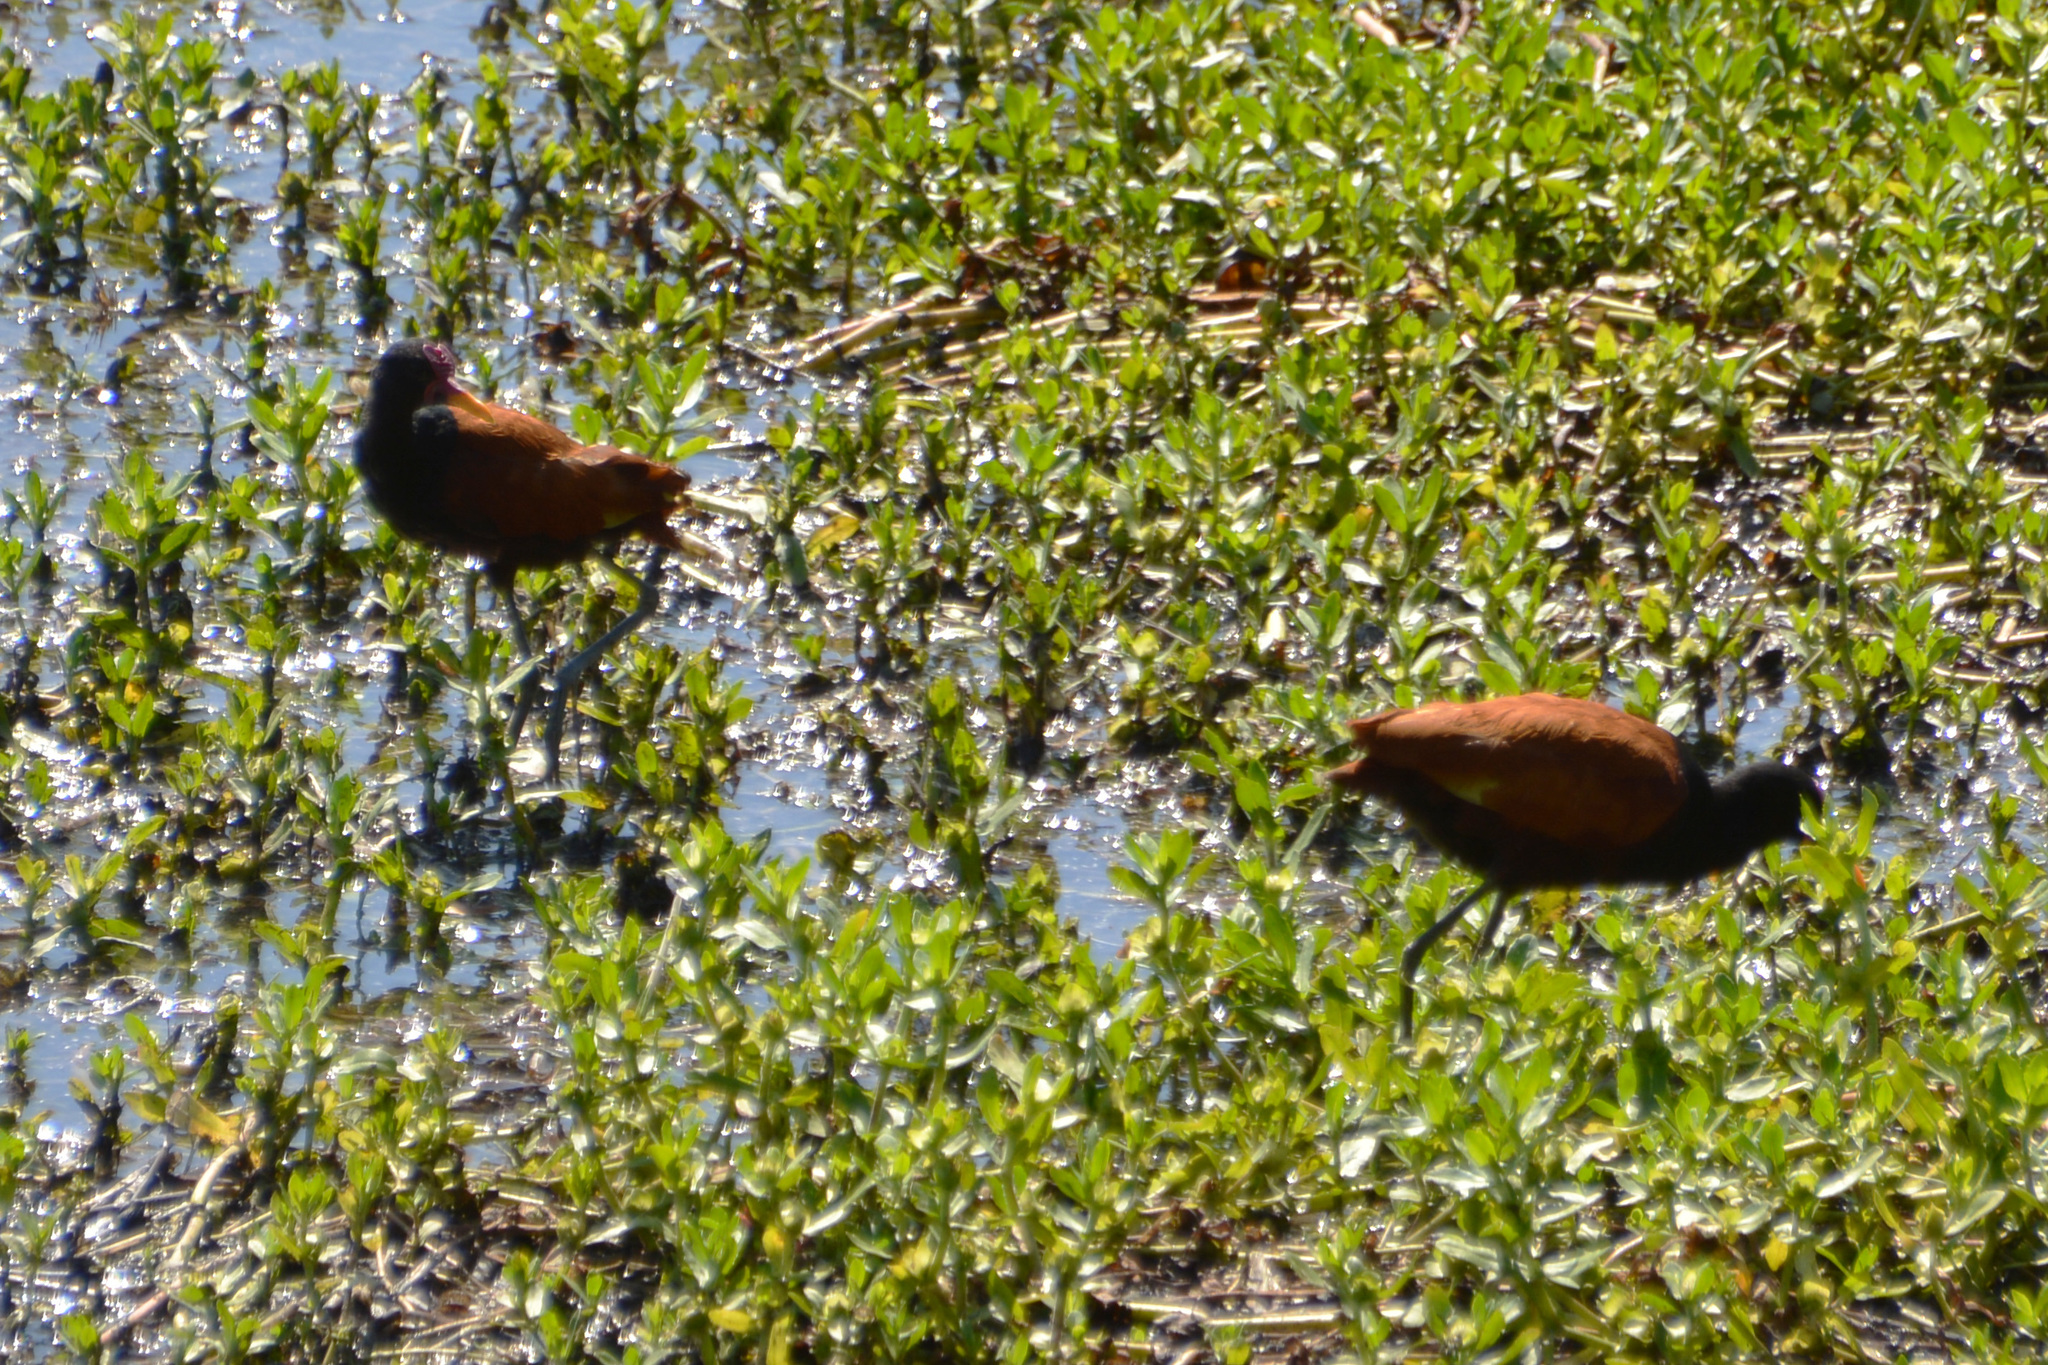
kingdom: Animalia
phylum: Chordata
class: Aves
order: Charadriiformes
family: Jacanidae
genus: Jacana
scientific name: Jacana jacana
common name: Wattled jacana
